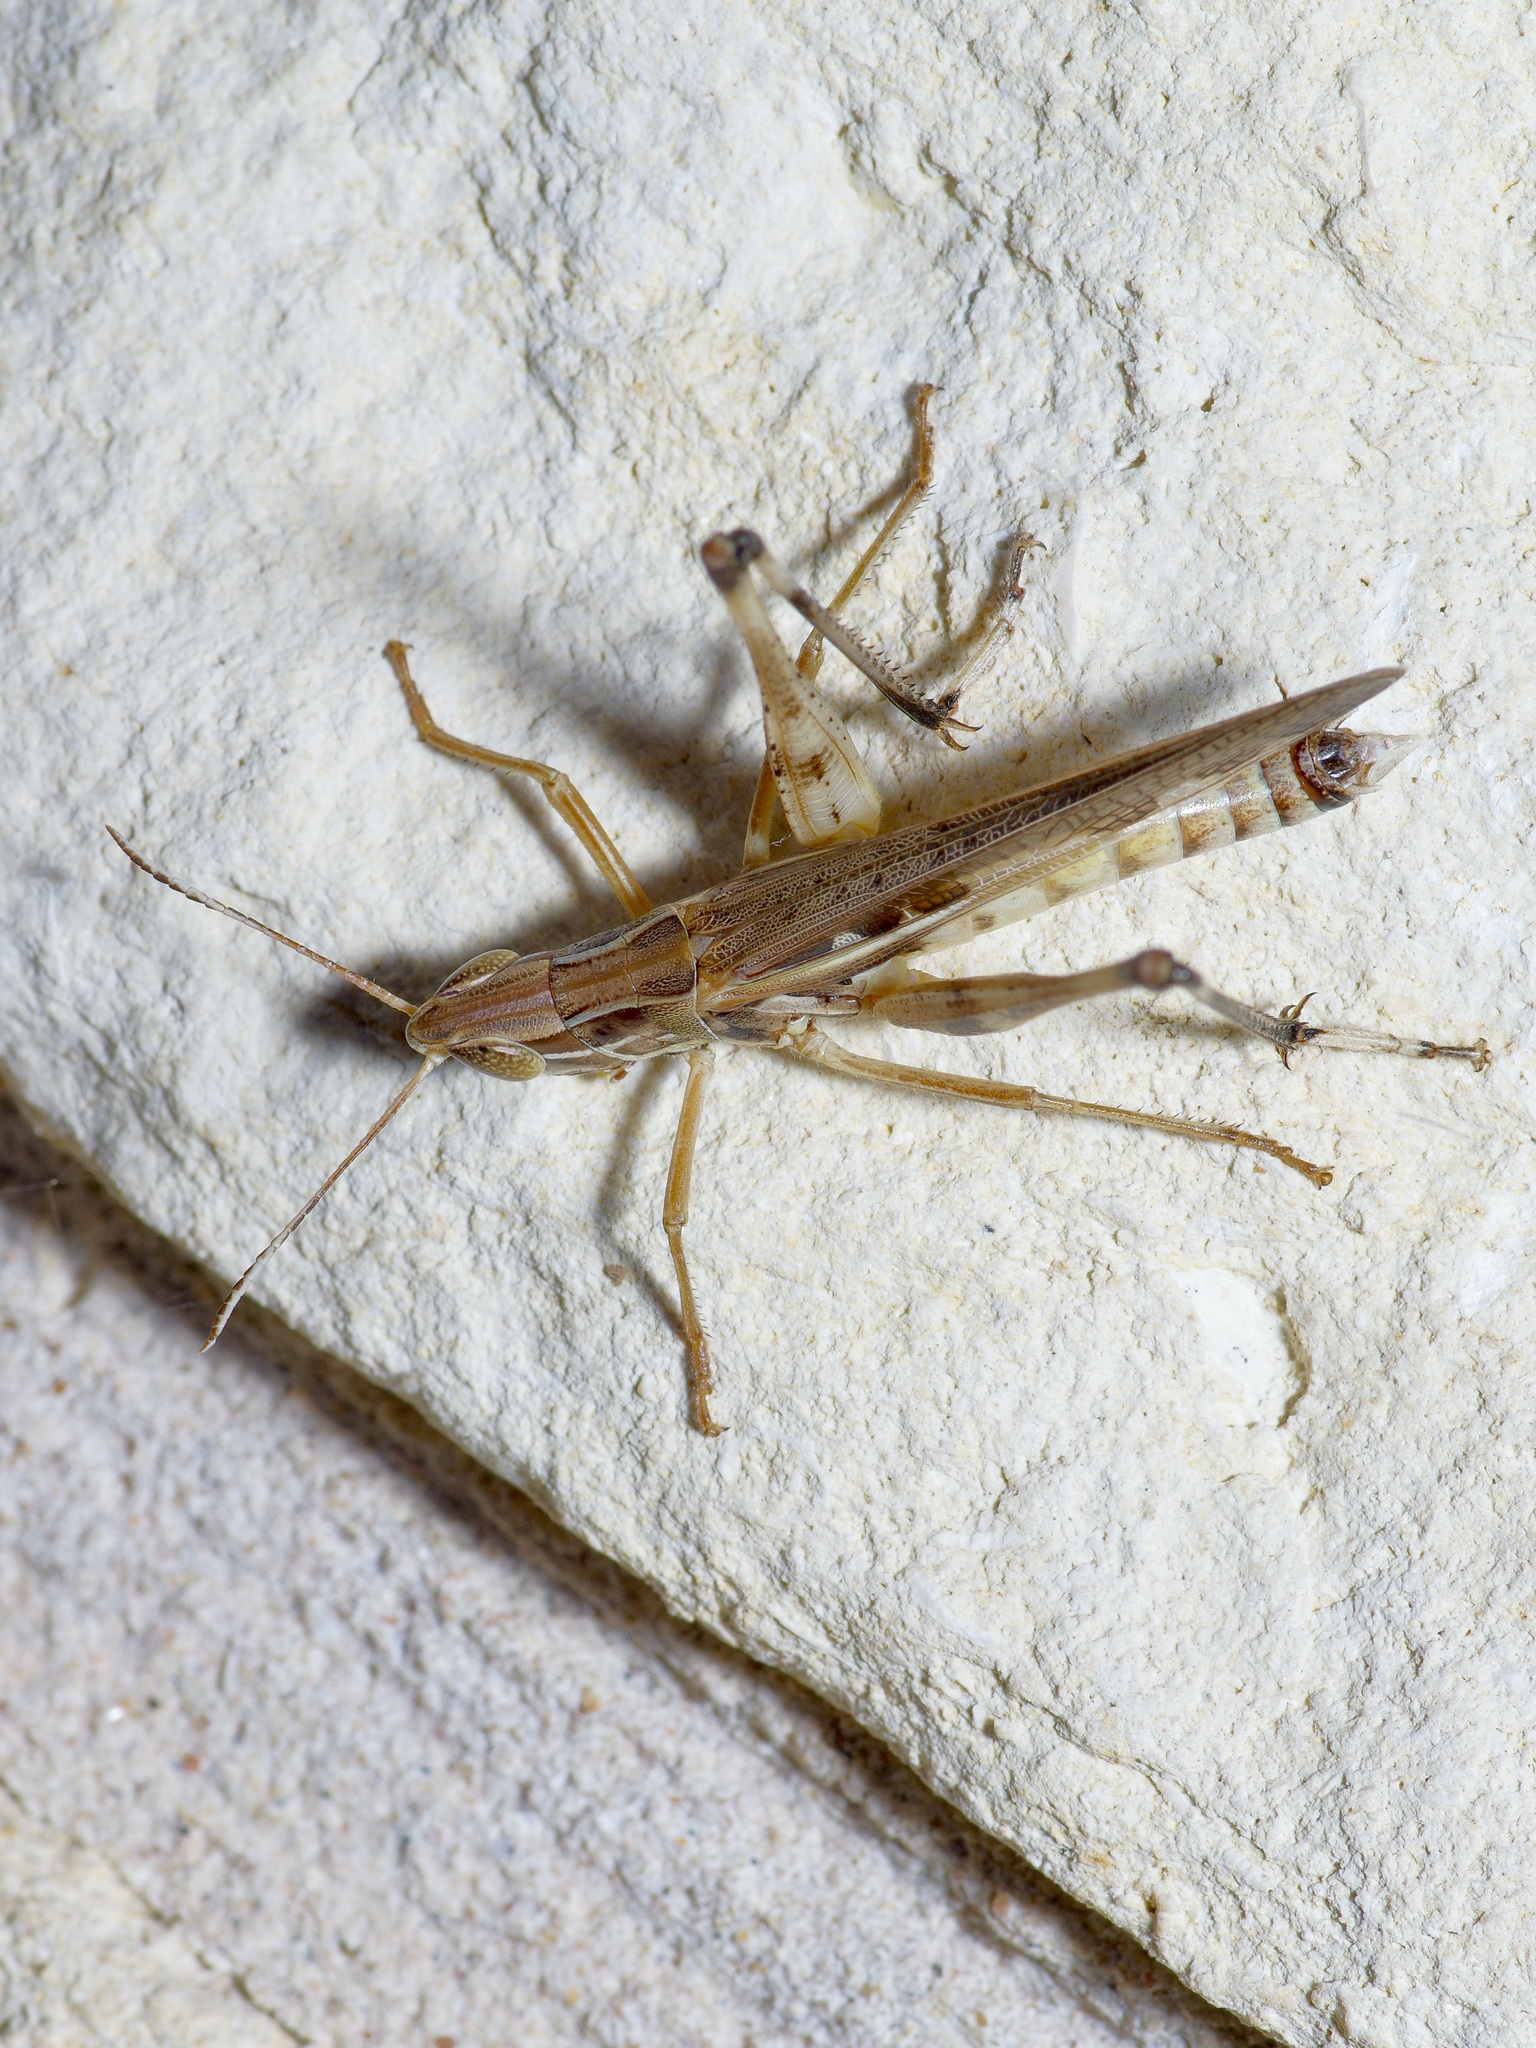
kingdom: Animalia
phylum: Arthropoda
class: Insecta
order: Orthoptera
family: Acrididae
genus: Syrbula
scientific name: Syrbula admirabilis
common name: Handsome grasshopper
